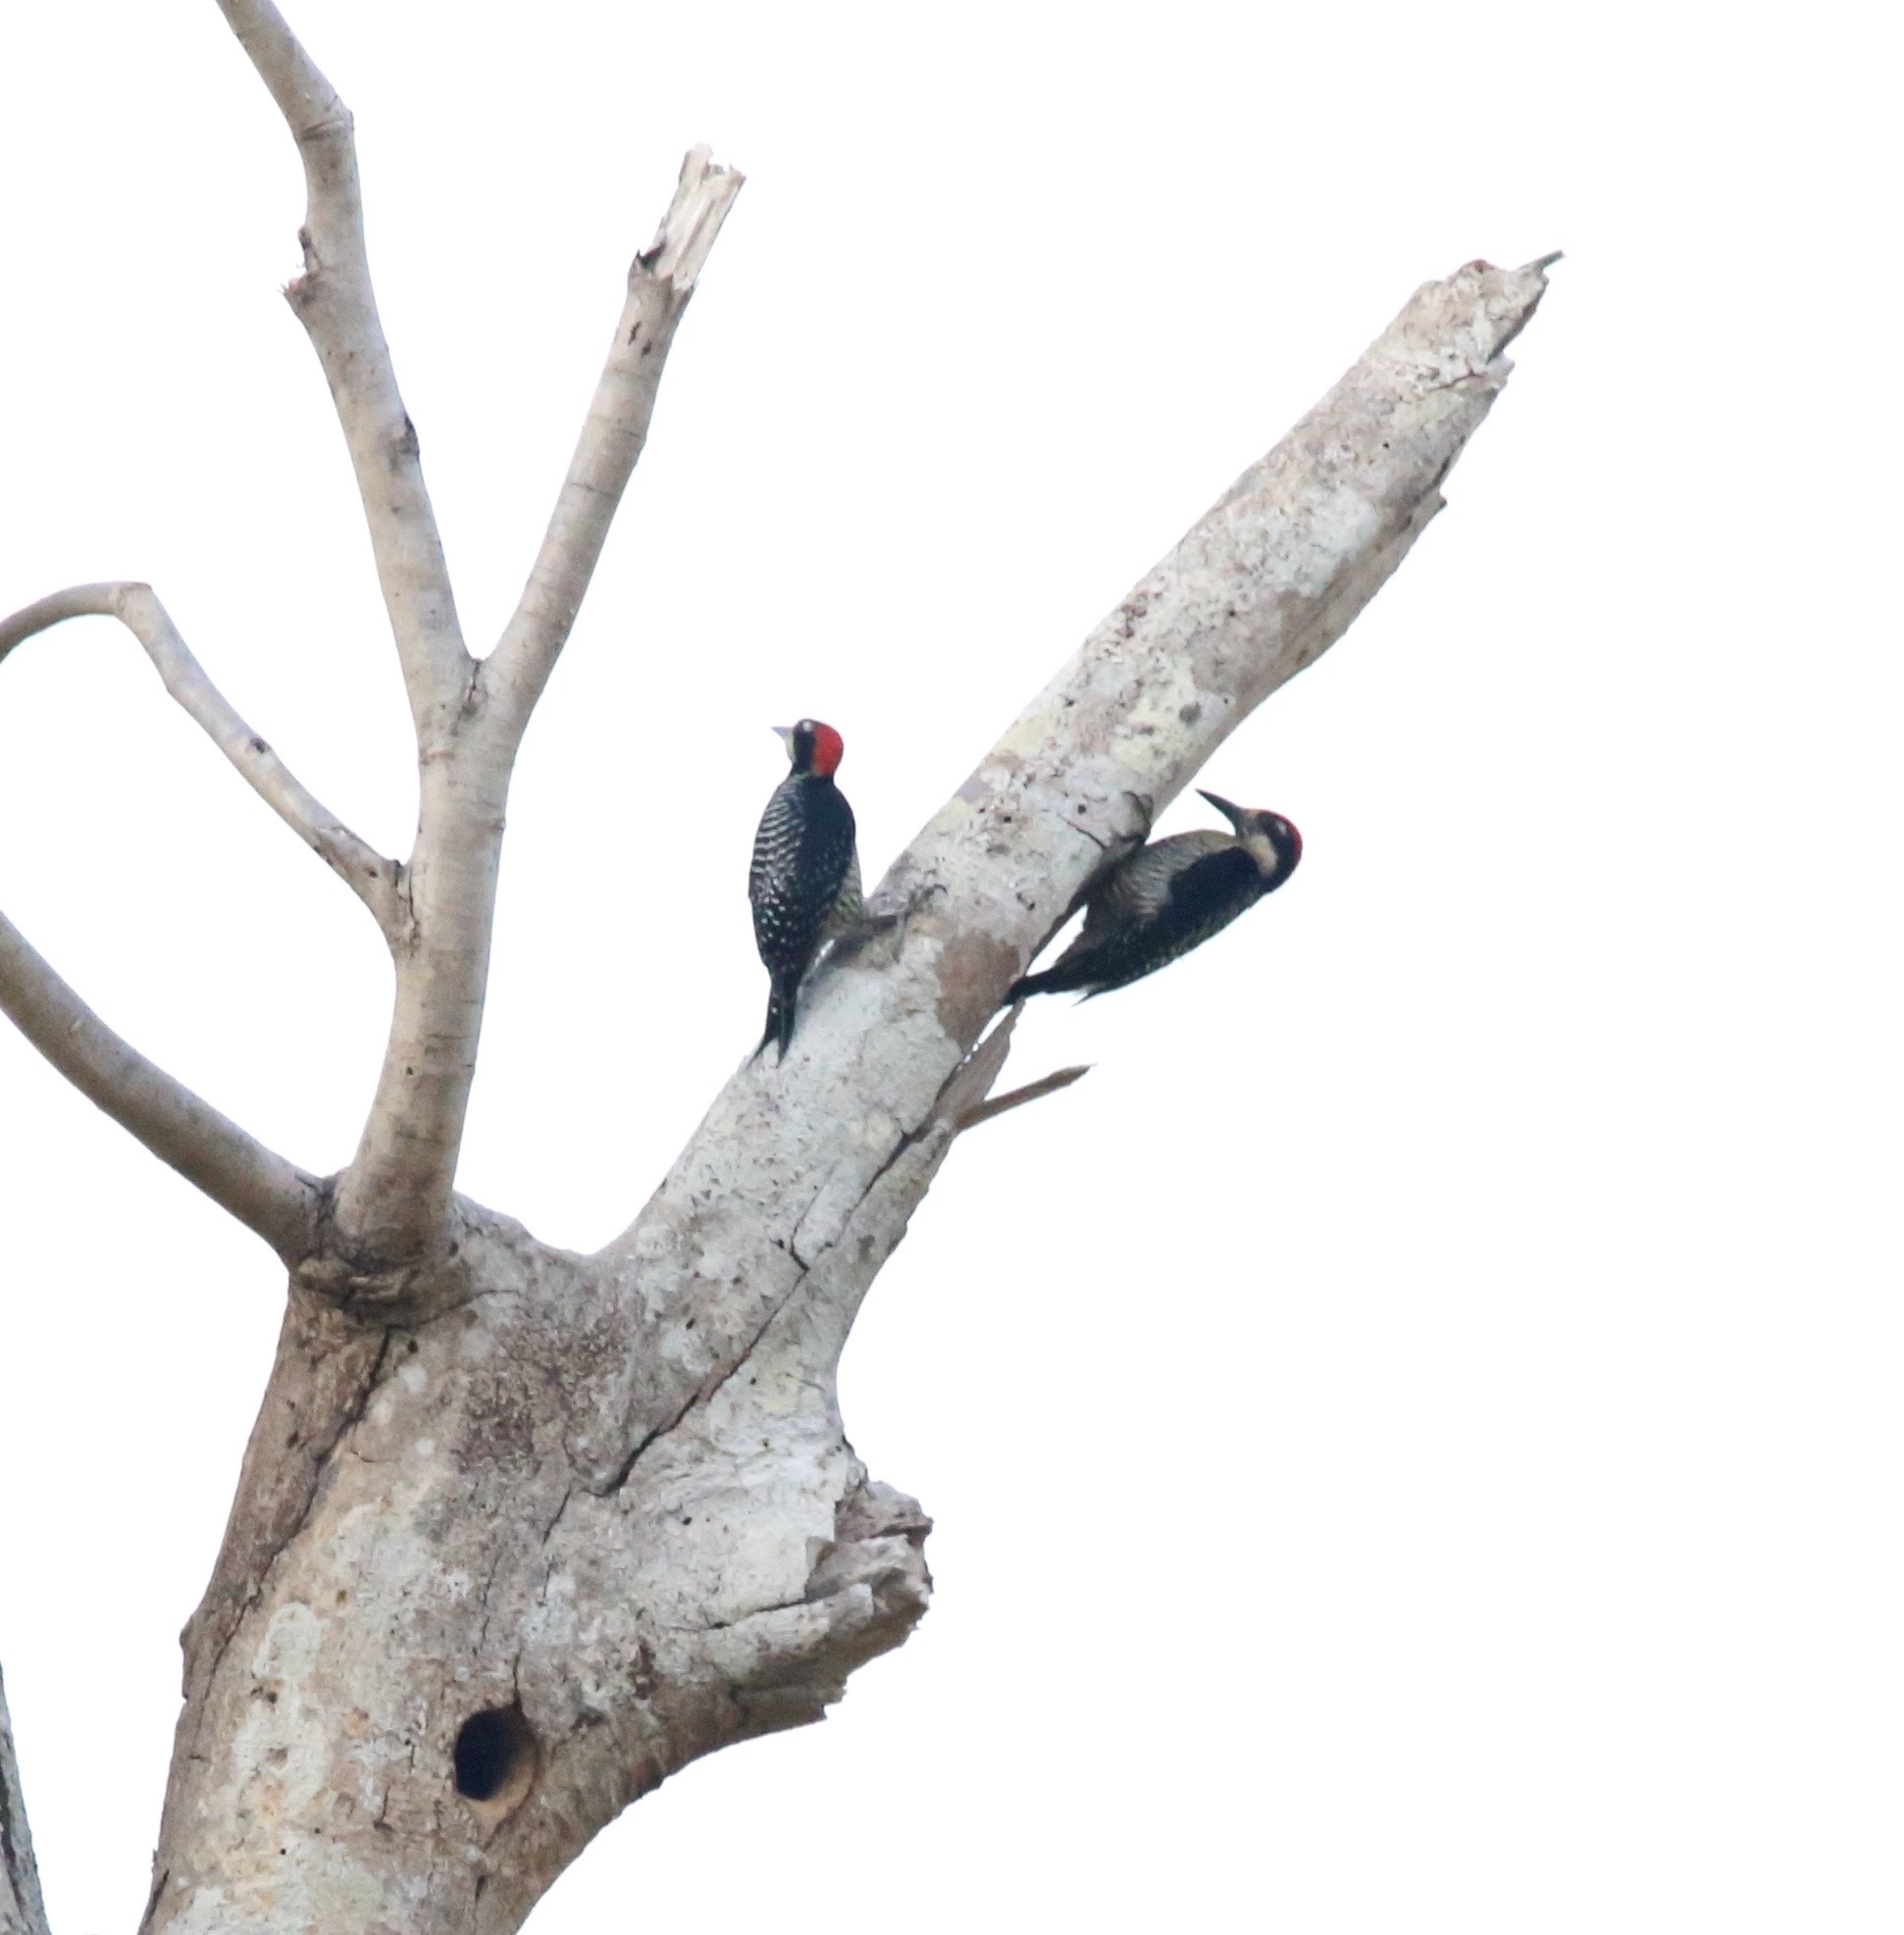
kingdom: Animalia
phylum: Chordata
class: Aves
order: Piciformes
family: Picidae
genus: Melanerpes
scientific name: Melanerpes pucherani
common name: Black-cheeked woodpecker
